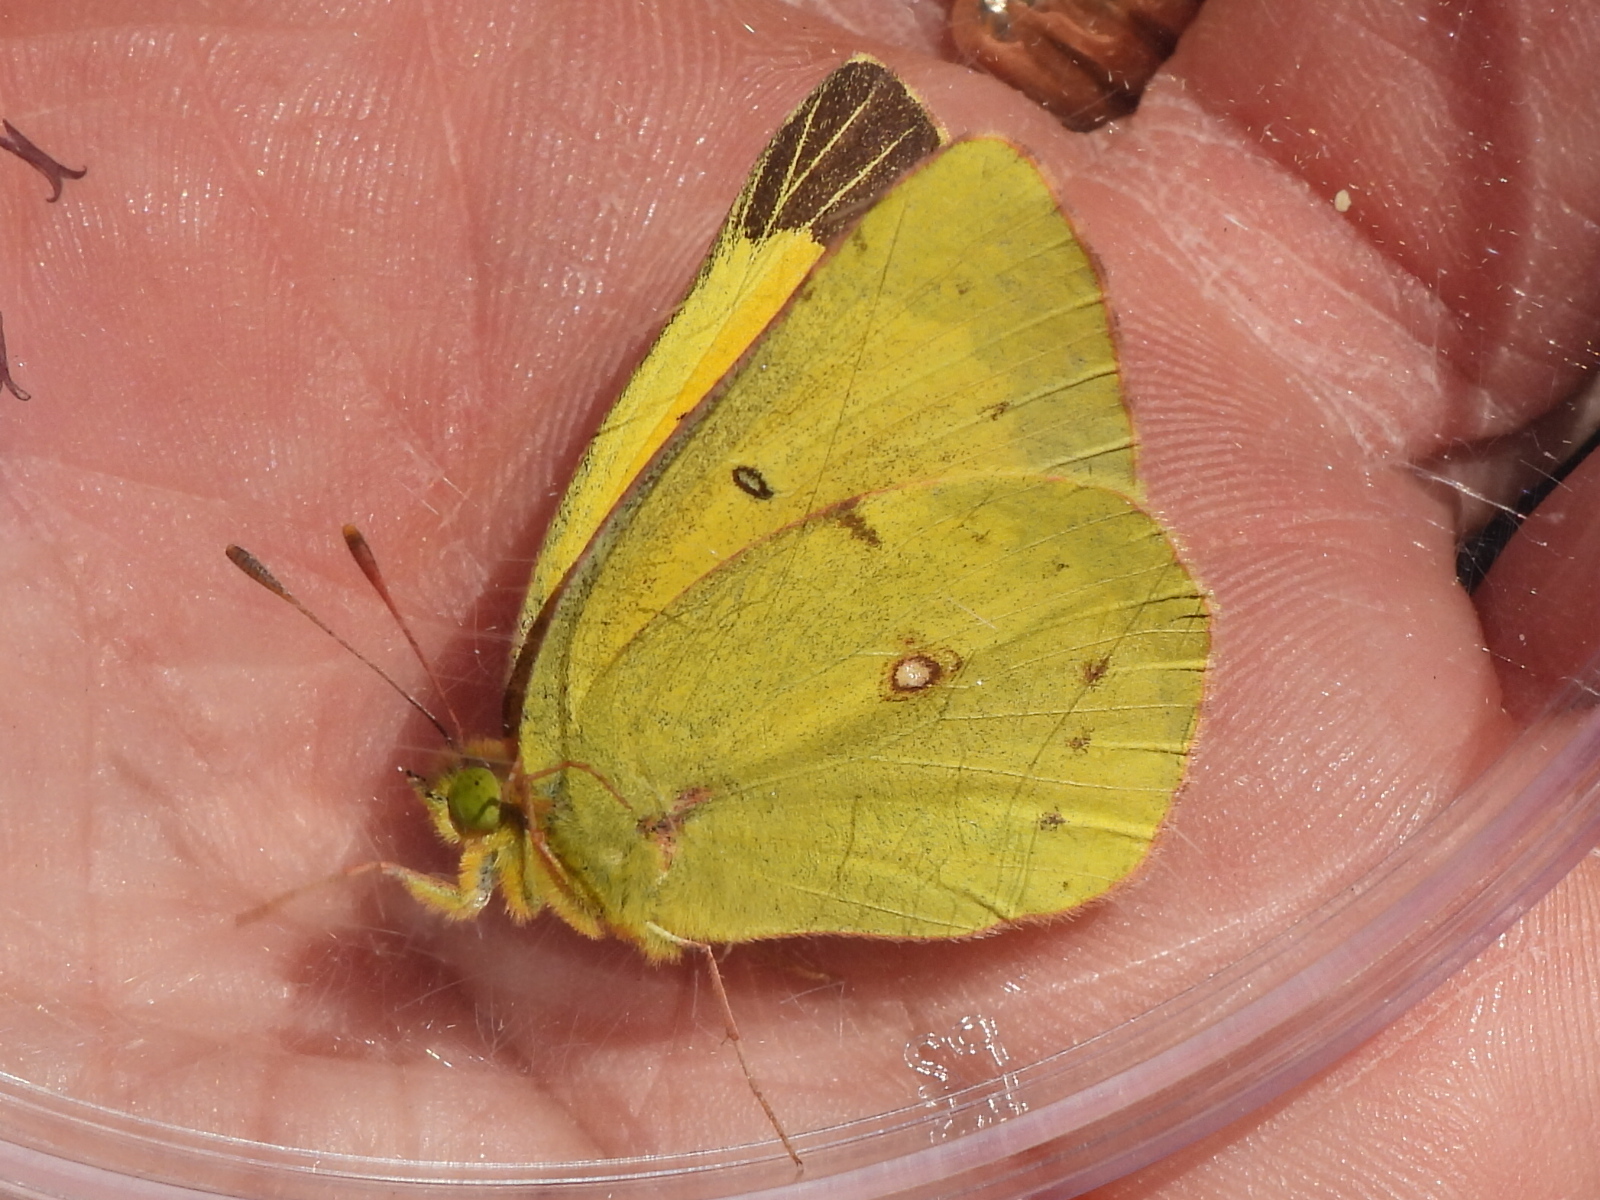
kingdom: Animalia
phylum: Arthropoda
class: Insecta
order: Lepidoptera
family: Pieridae
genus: Colias
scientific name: Colias eurytheme
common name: Alfalfa butterfly
